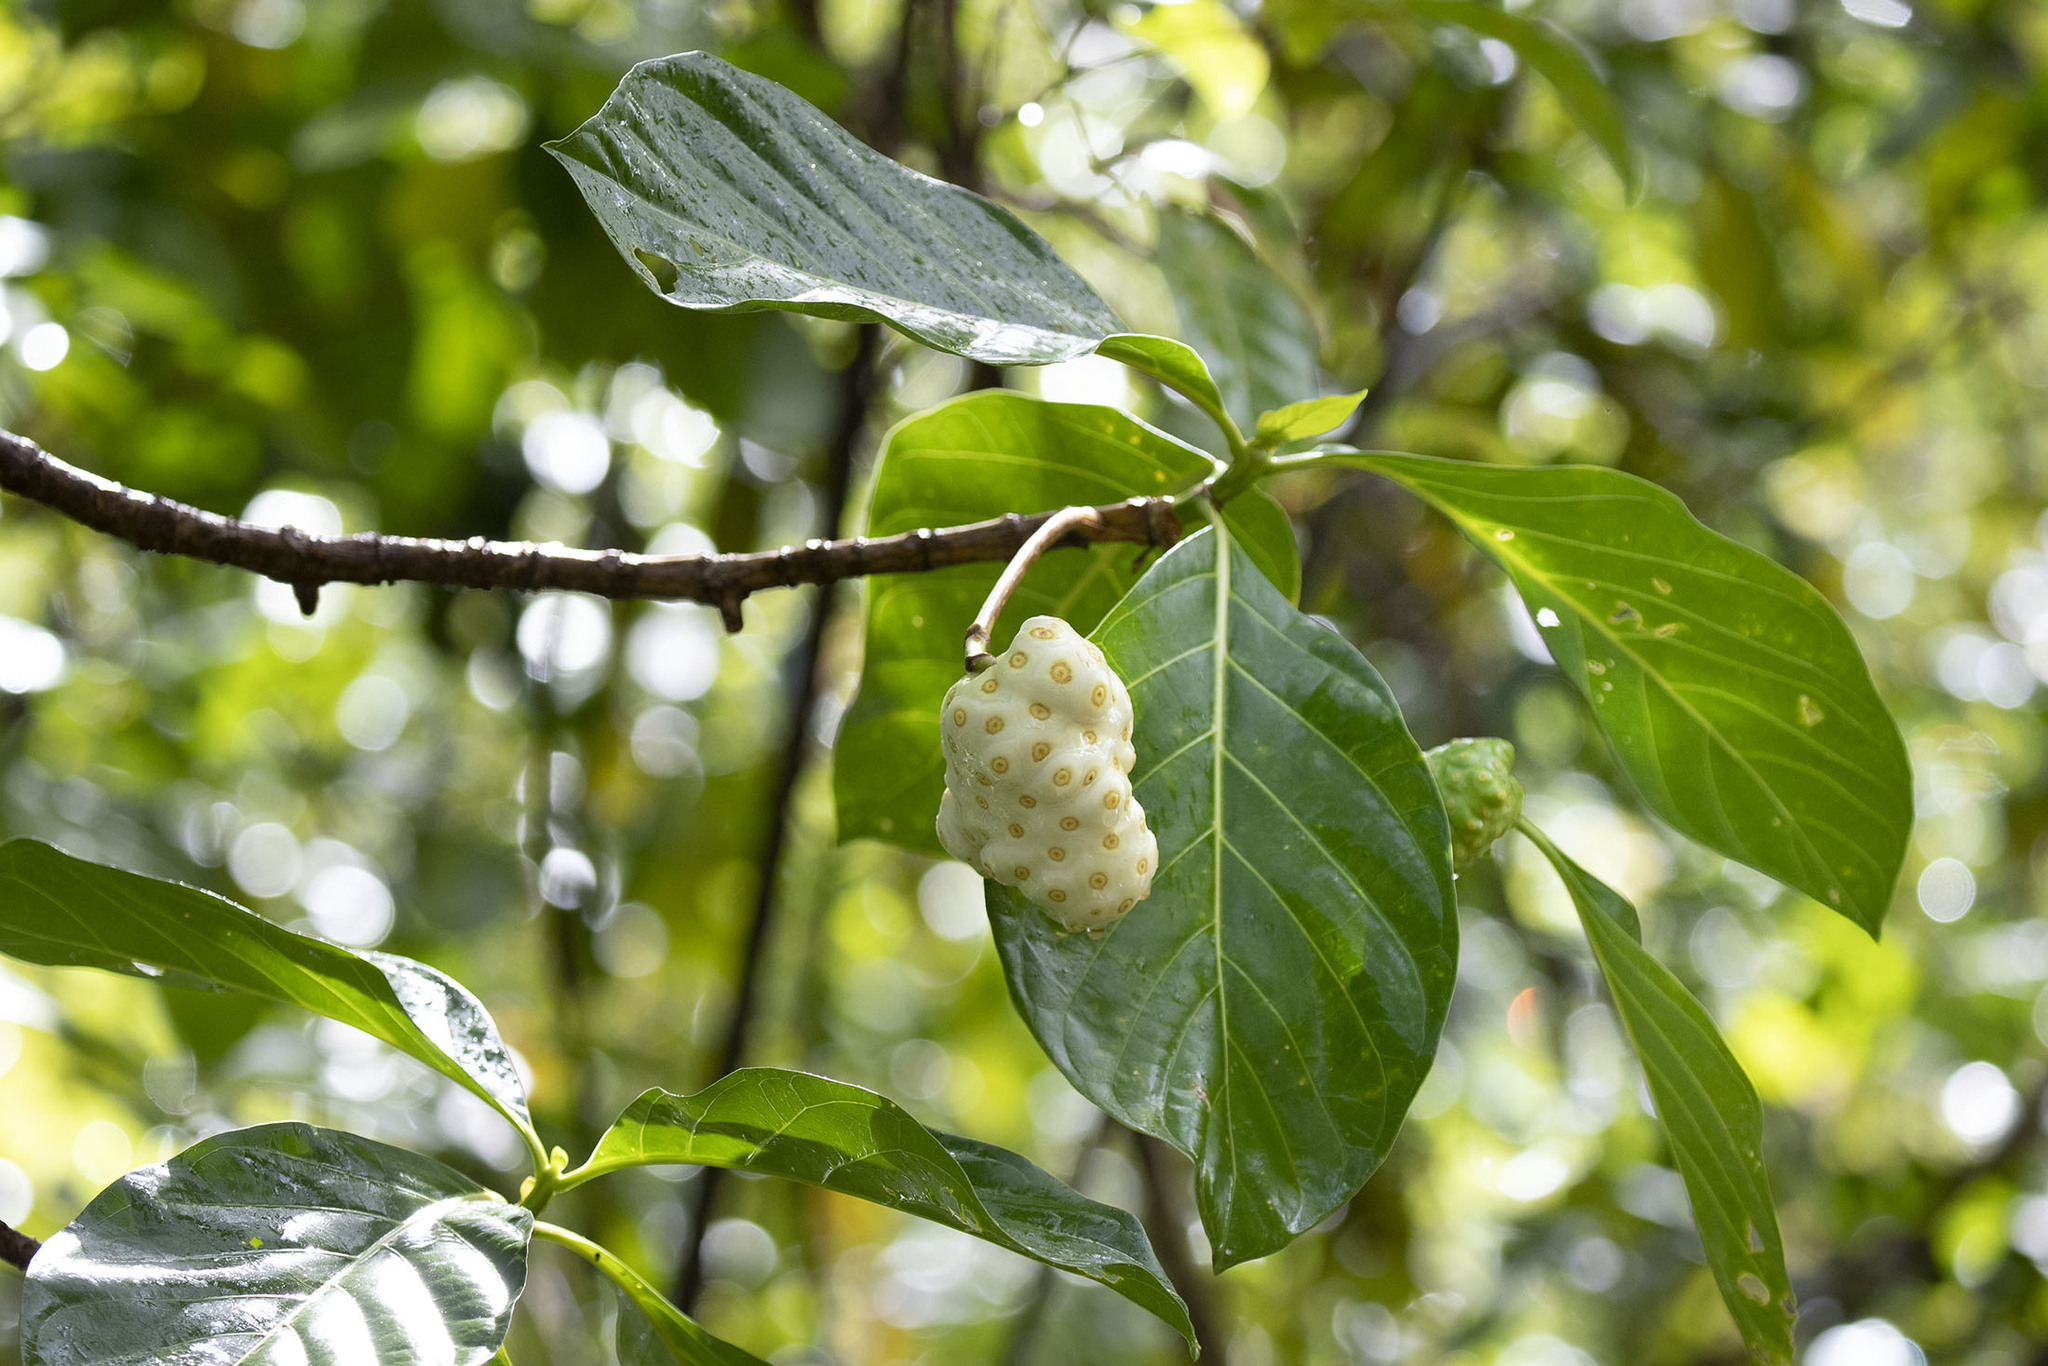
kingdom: Plantae
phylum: Tracheophyta
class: Magnoliopsida
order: Gentianales
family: Rubiaceae
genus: Morinda
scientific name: Morinda citrifolia
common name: Indian-mulberry
